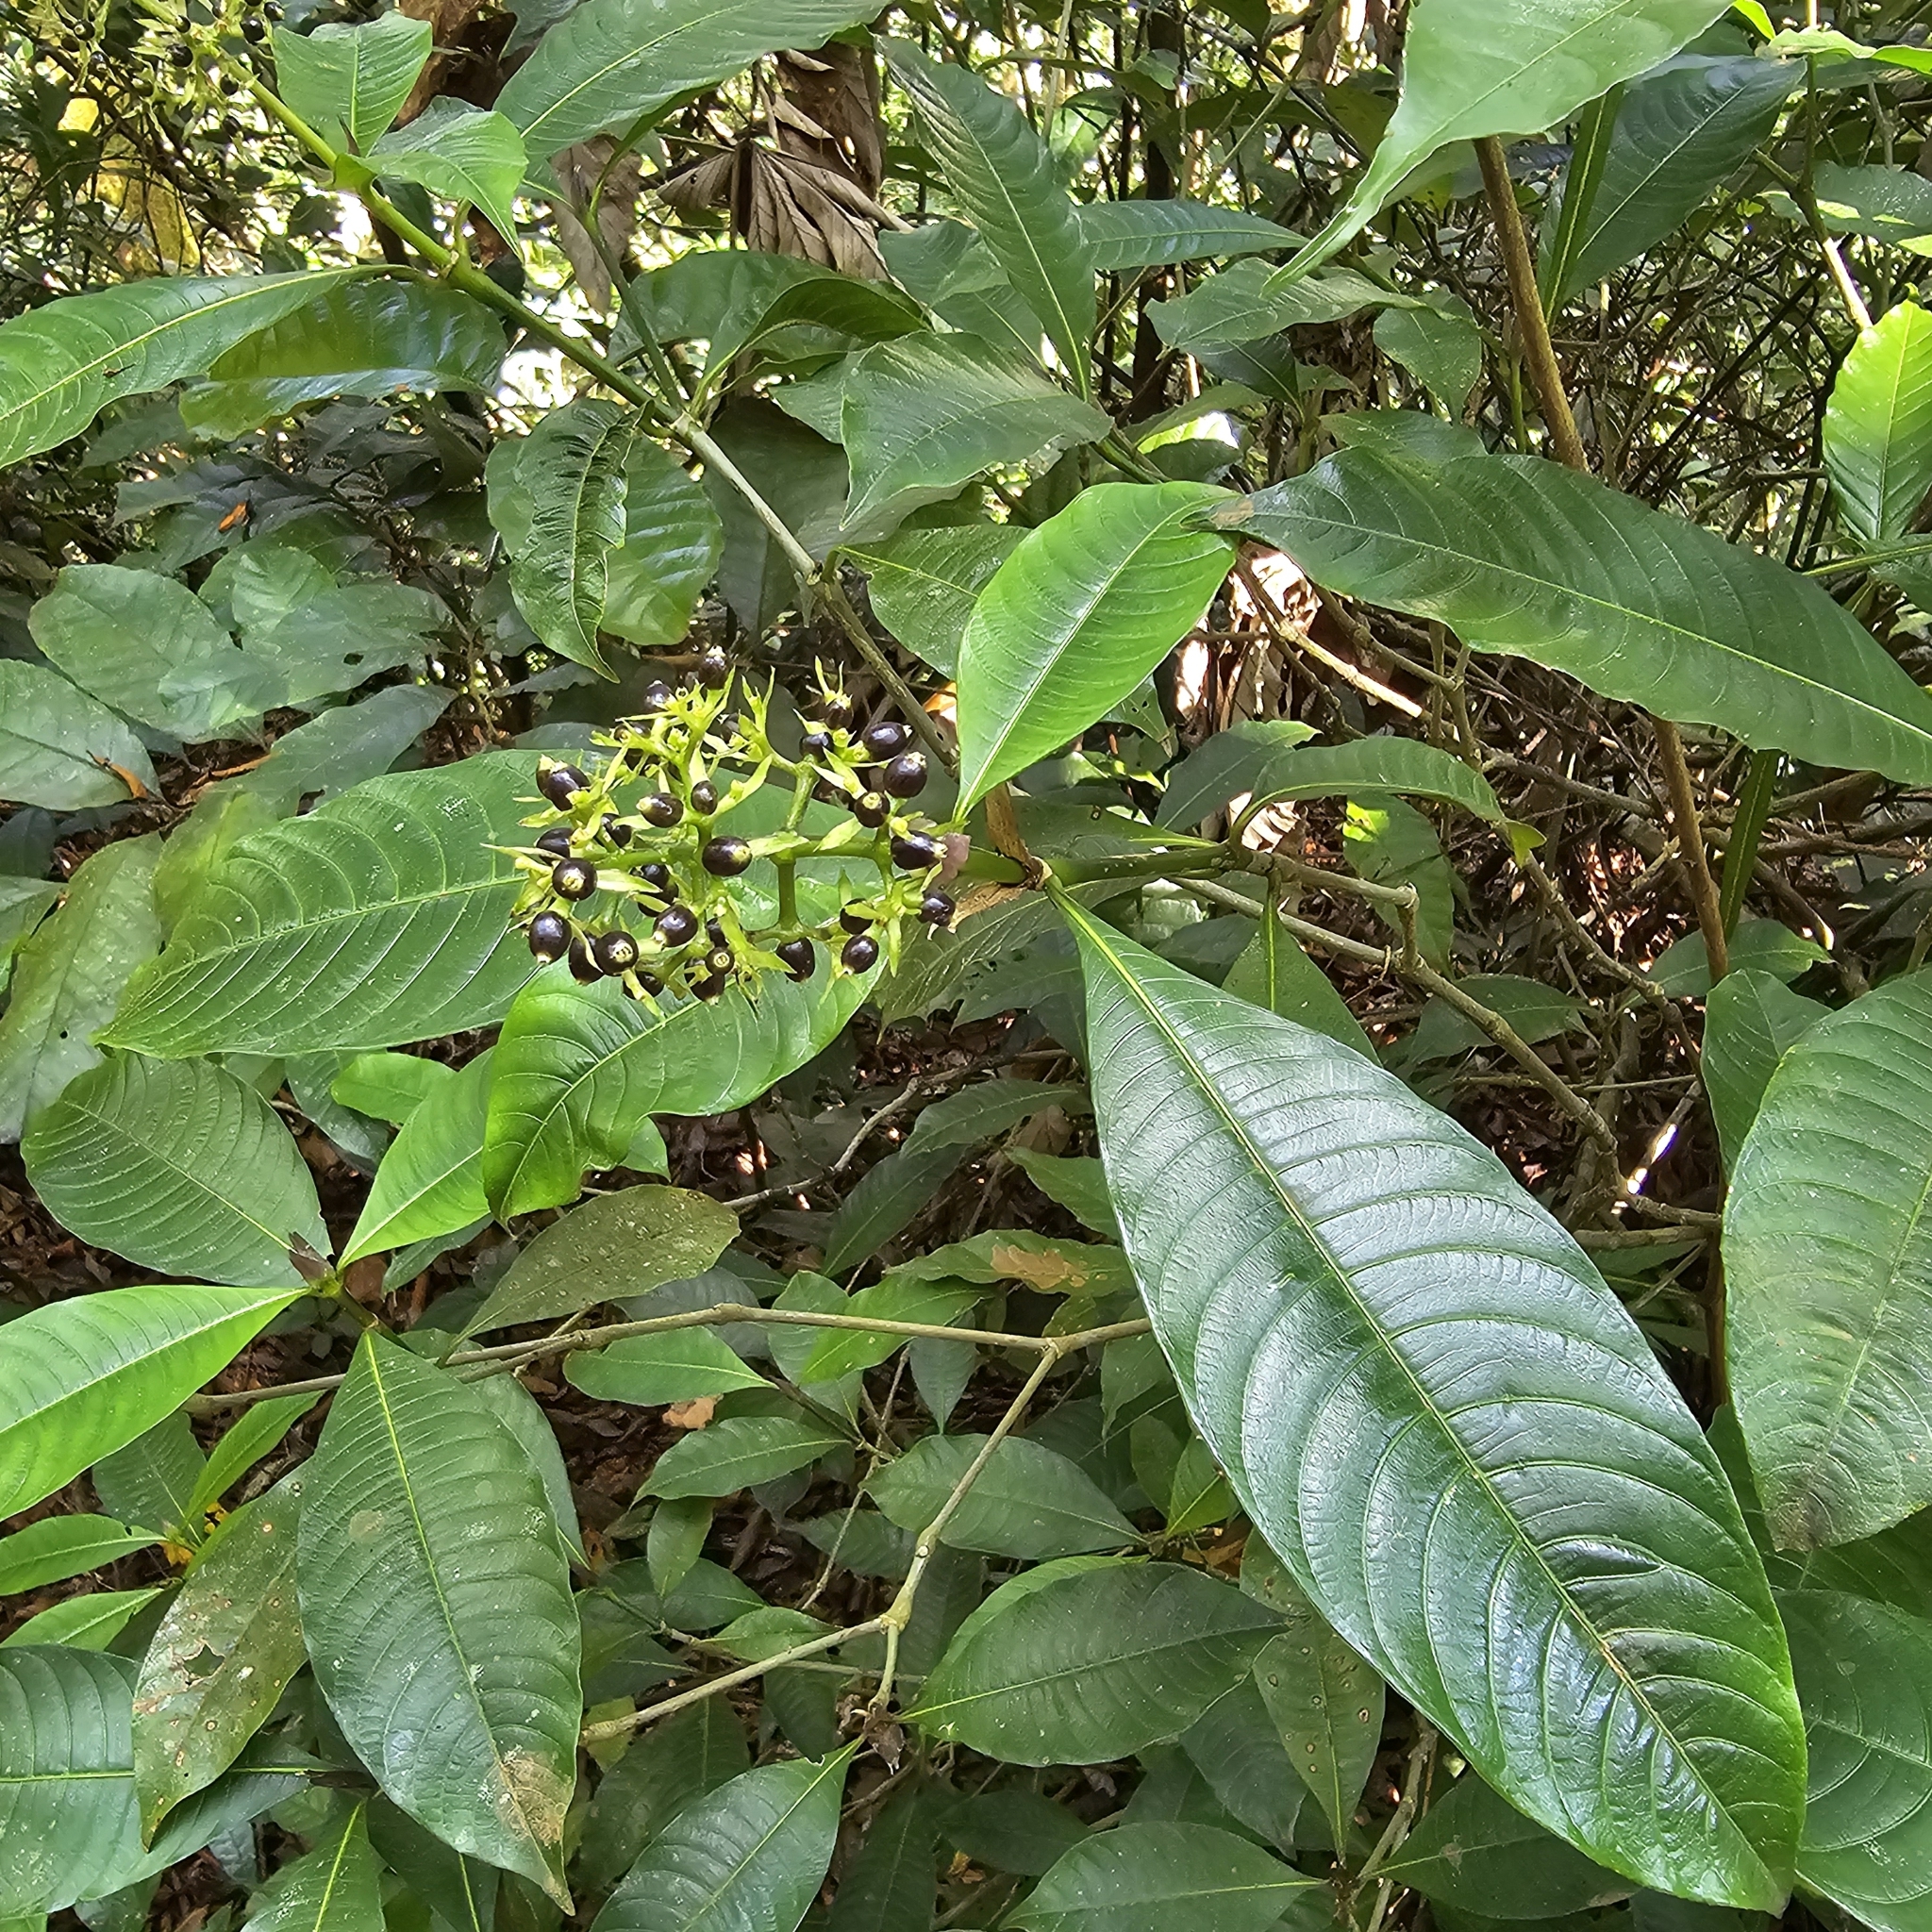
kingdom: Plantae
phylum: Tracheophyta
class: Magnoliopsida
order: Gentianales
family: Rubiaceae
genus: Palicourea
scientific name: Palicourea violacea
